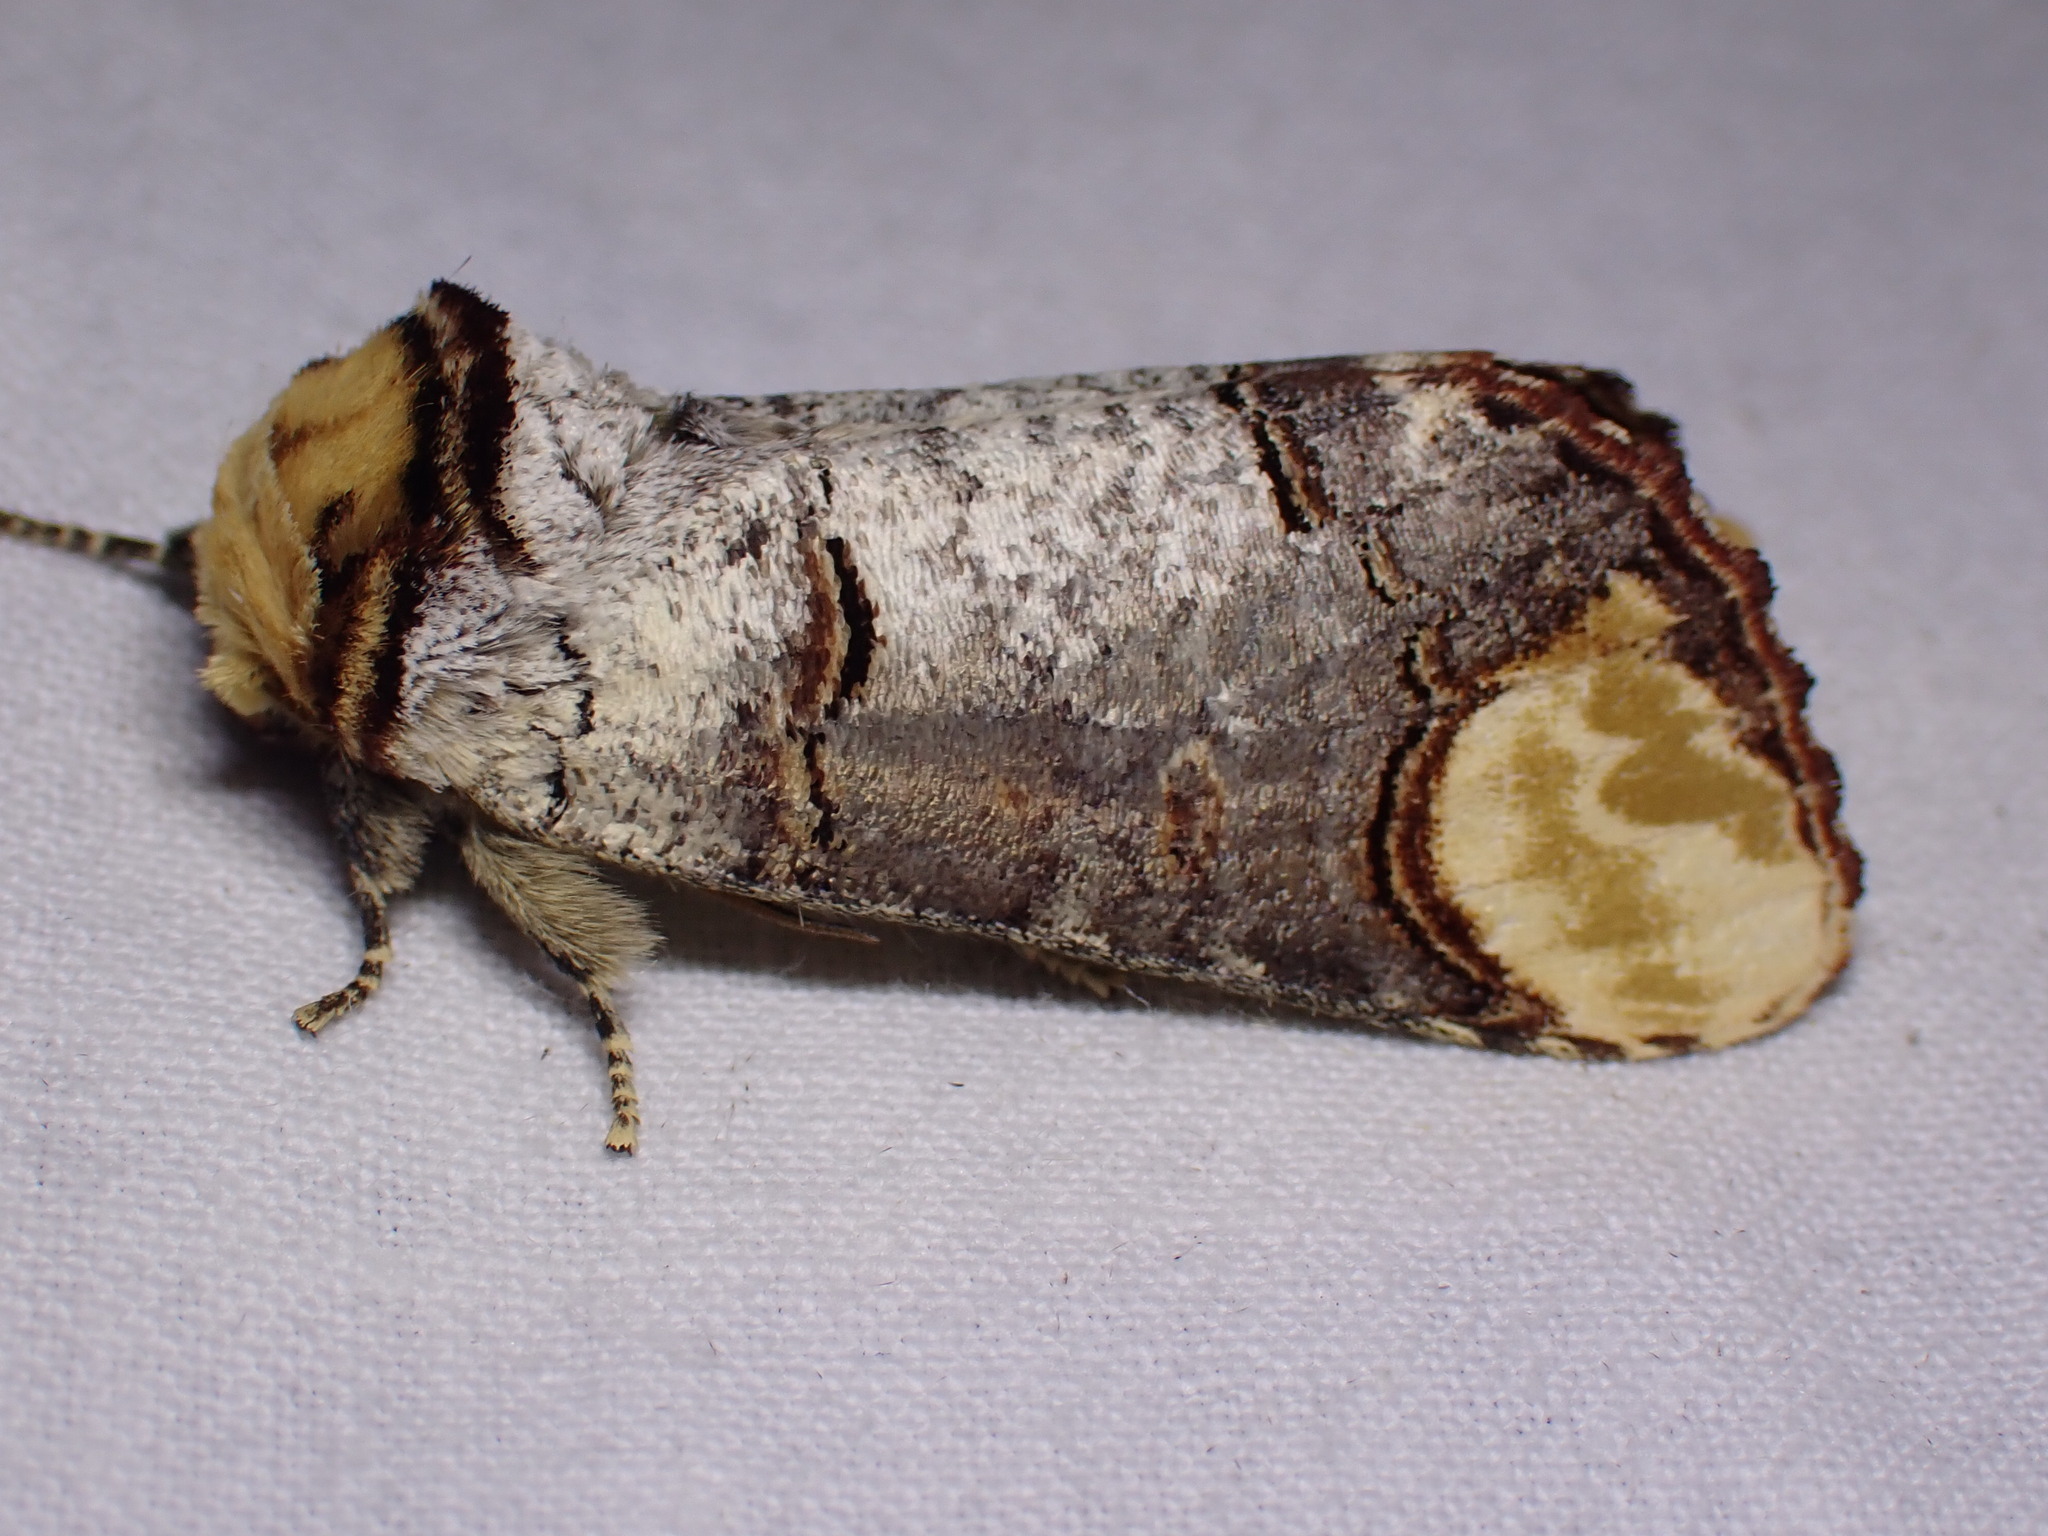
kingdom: Animalia
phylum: Arthropoda
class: Insecta
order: Lepidoptera
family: Notodontidae
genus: Phalera
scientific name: Phalera bucephala
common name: Buff-tip
